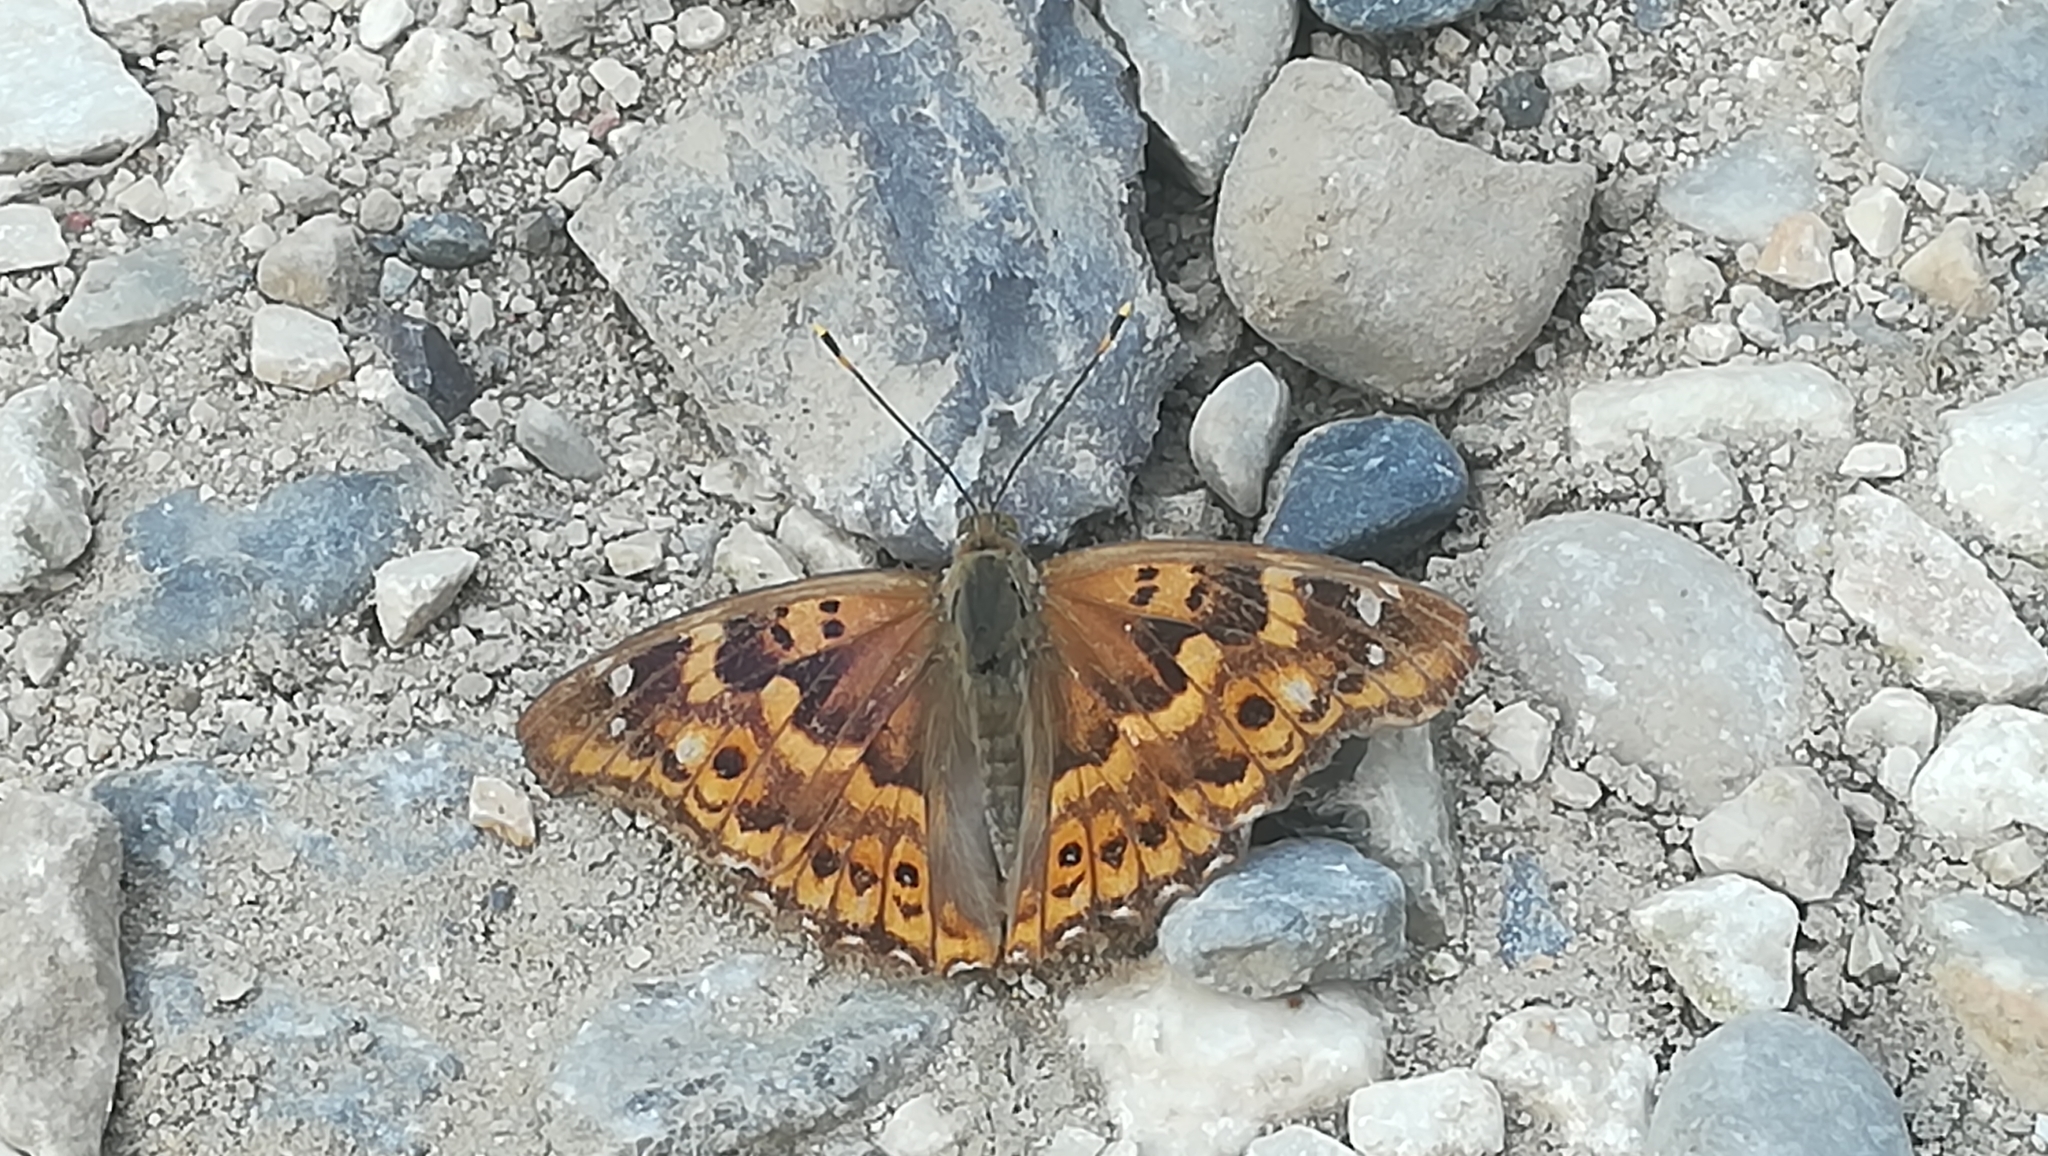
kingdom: Animalia
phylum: Arthropoda
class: Insecta
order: Lepidoptera
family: Nymphalidae
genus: Apatura
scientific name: Apatura ilia
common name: Lesser purple emperor
